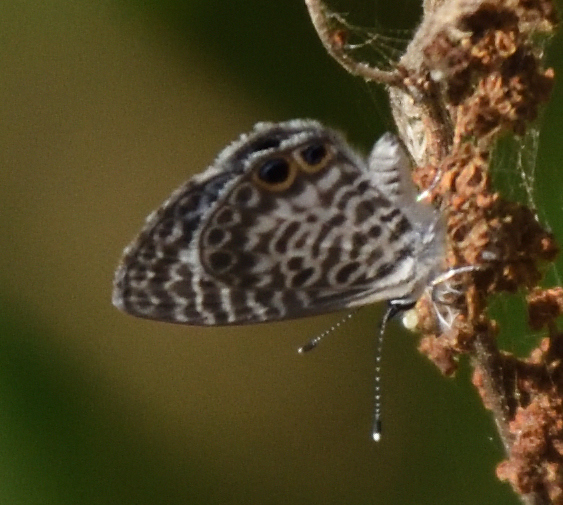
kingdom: Animalia
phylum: Arthropoda
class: Insecta
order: Lepidoptera
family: Lycaenidae
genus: Leptotes
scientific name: Leptotes cassius
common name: Cassius blue
